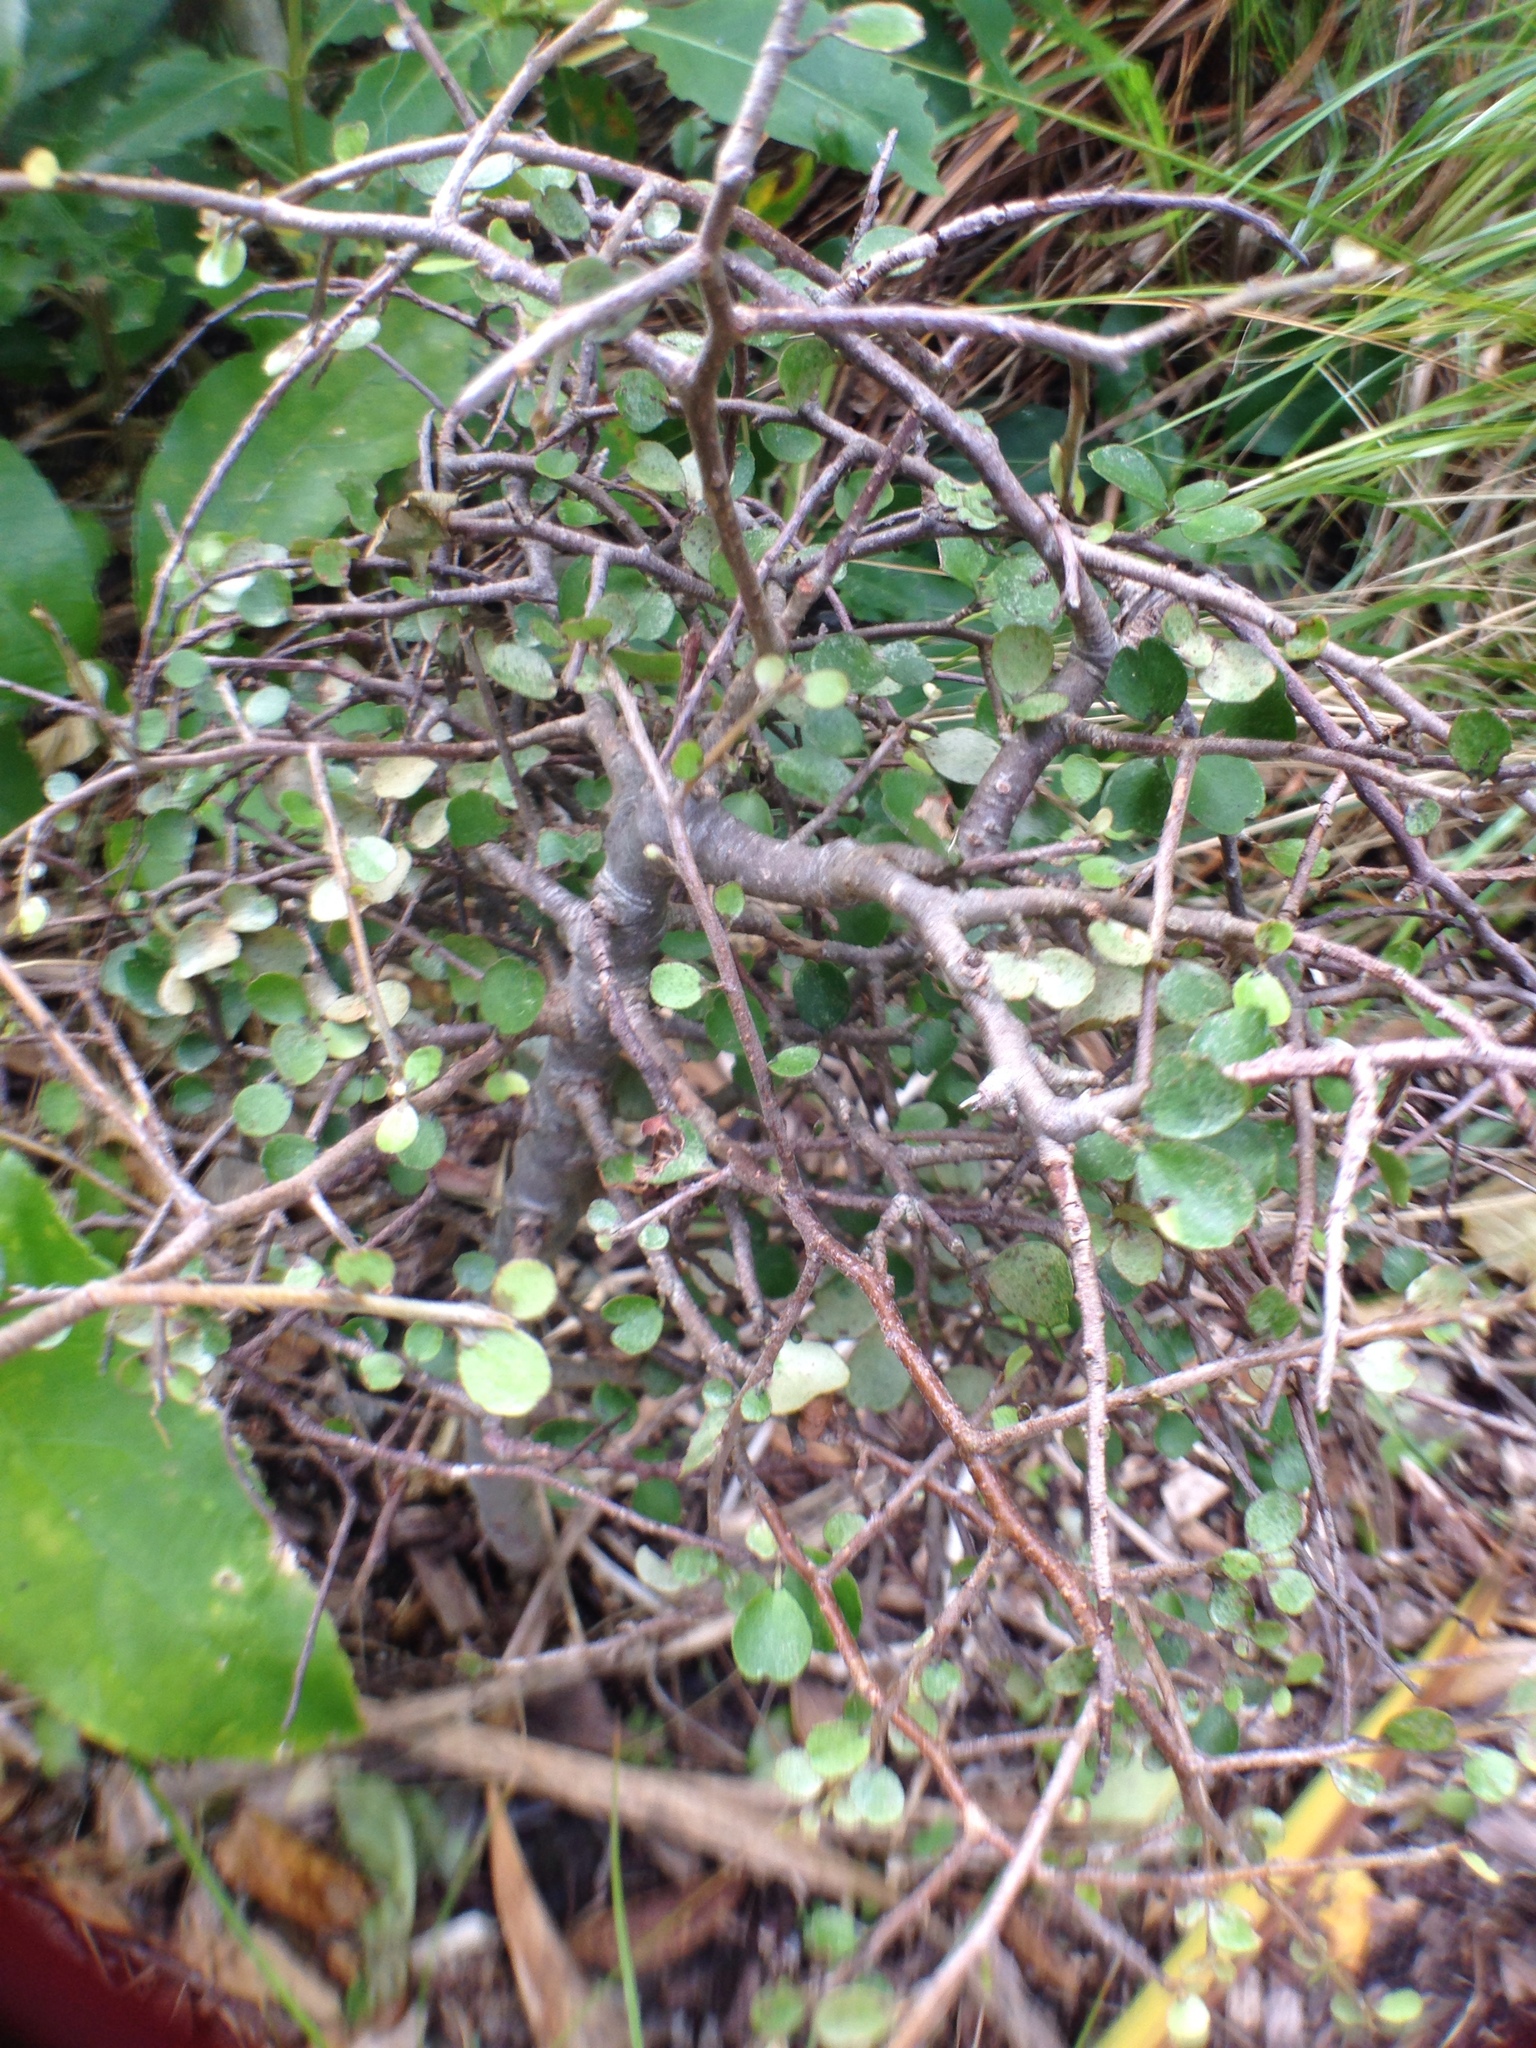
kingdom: Plantae
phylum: Tracheophyta
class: Magnoliopsida
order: Ericales
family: Primulaceae
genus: Myrsine
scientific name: Myrsine divaricata
